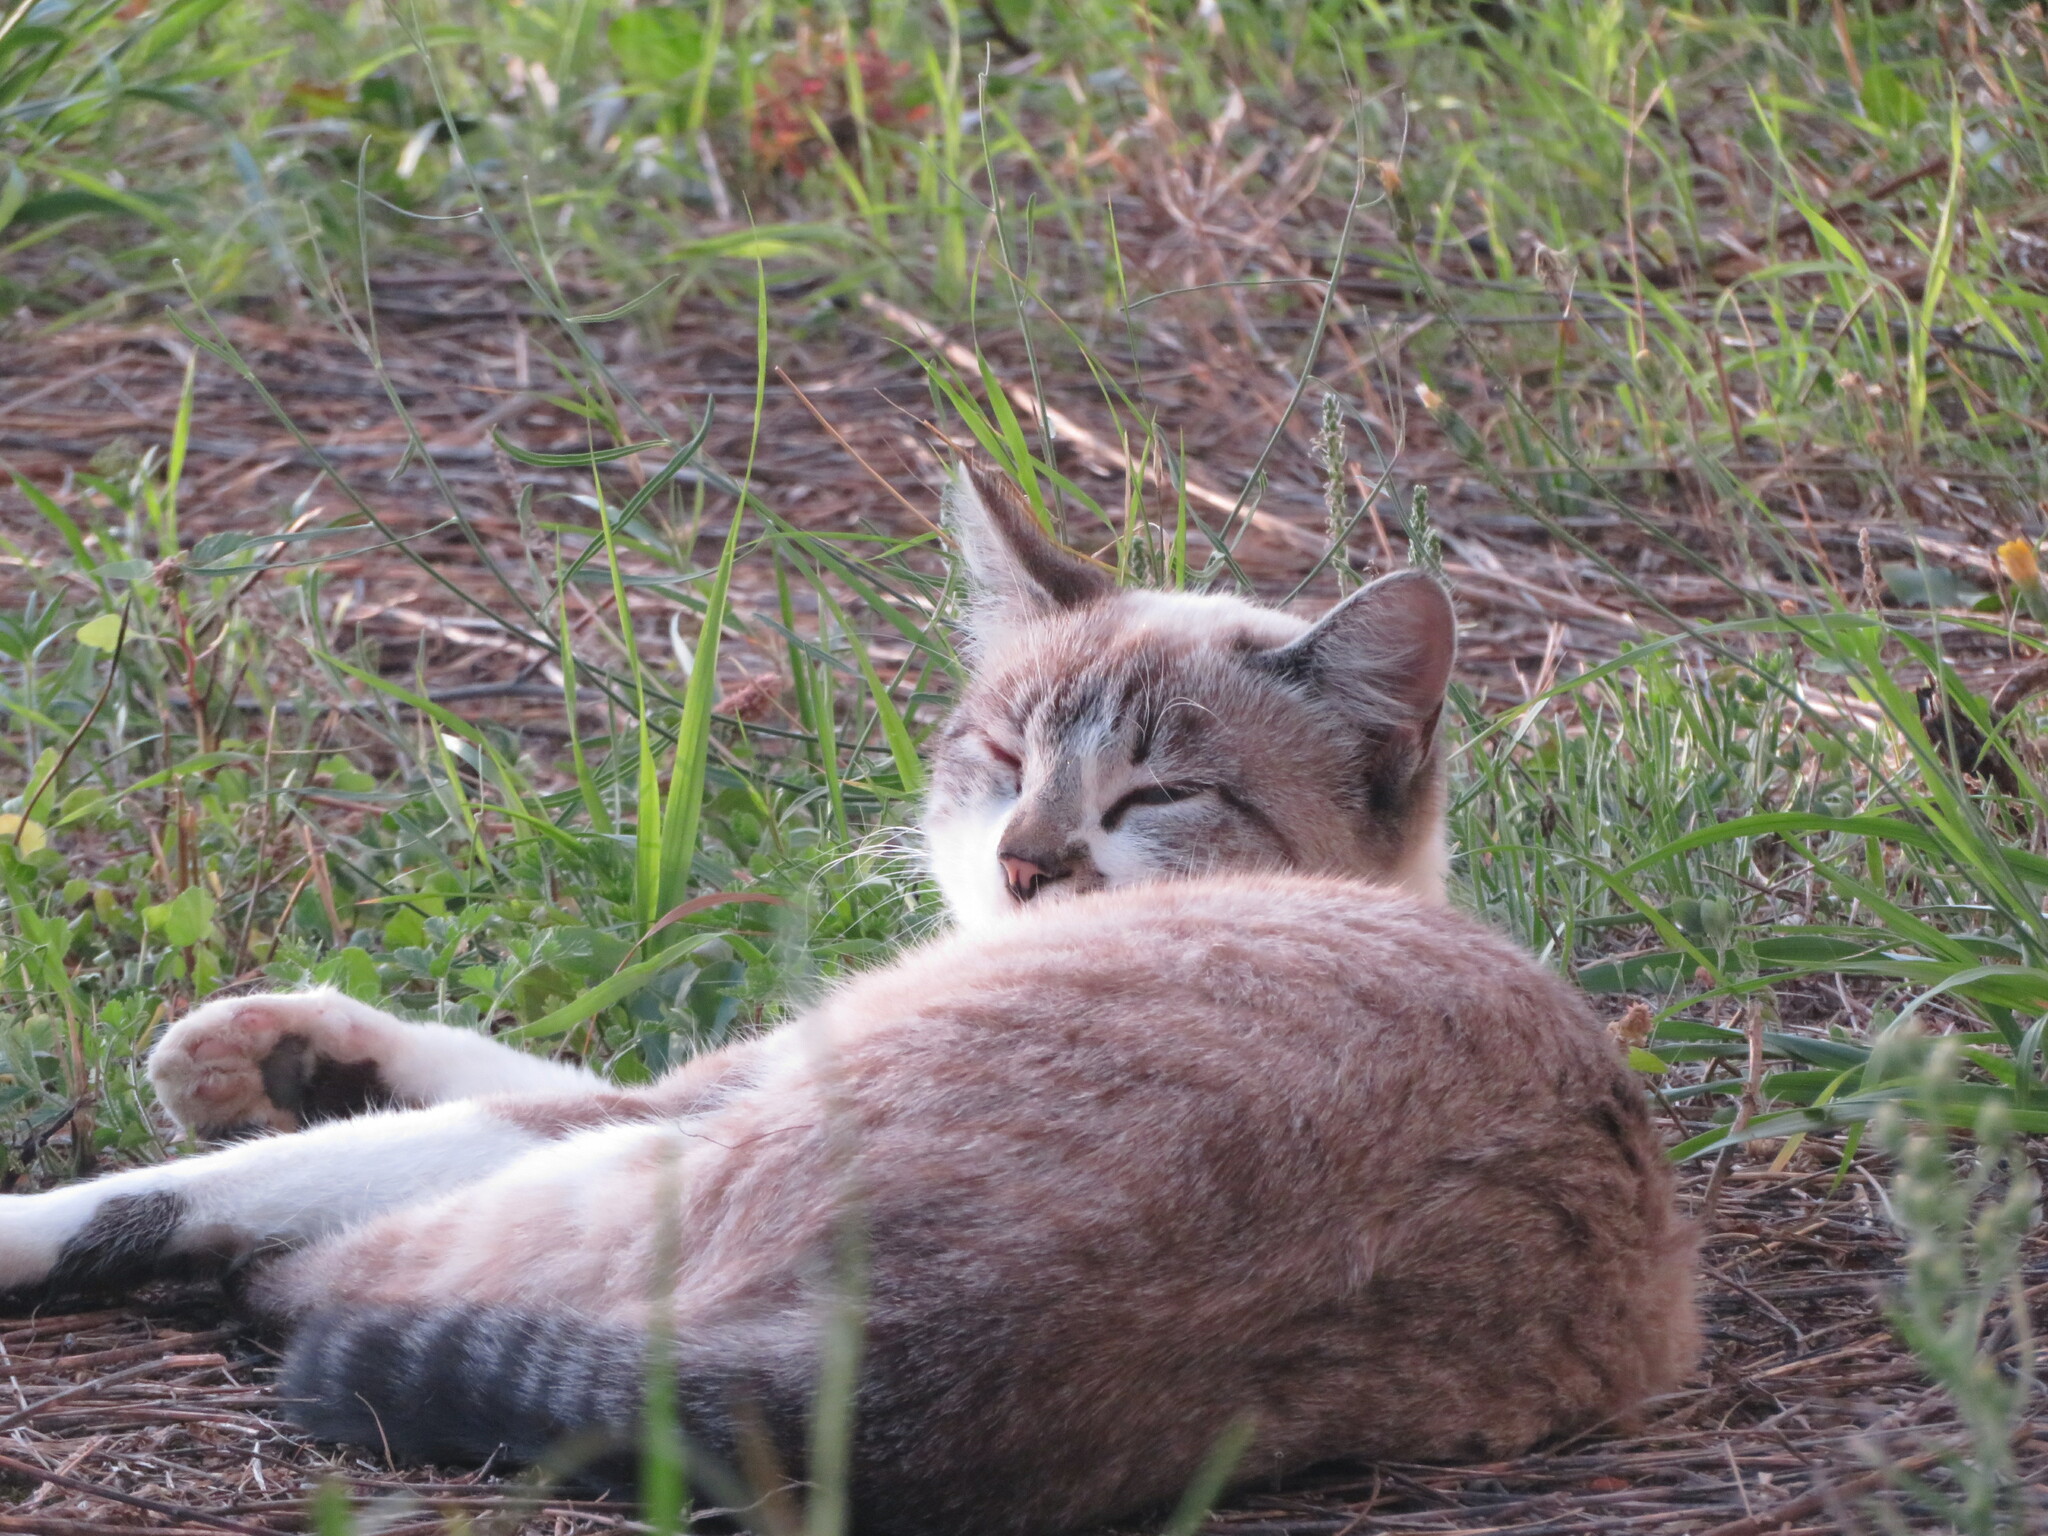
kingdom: Animalia
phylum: Chordata
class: Mammalia
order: Carnivora
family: Felidae
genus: Felis
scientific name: Felis catus
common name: Domestic cat
